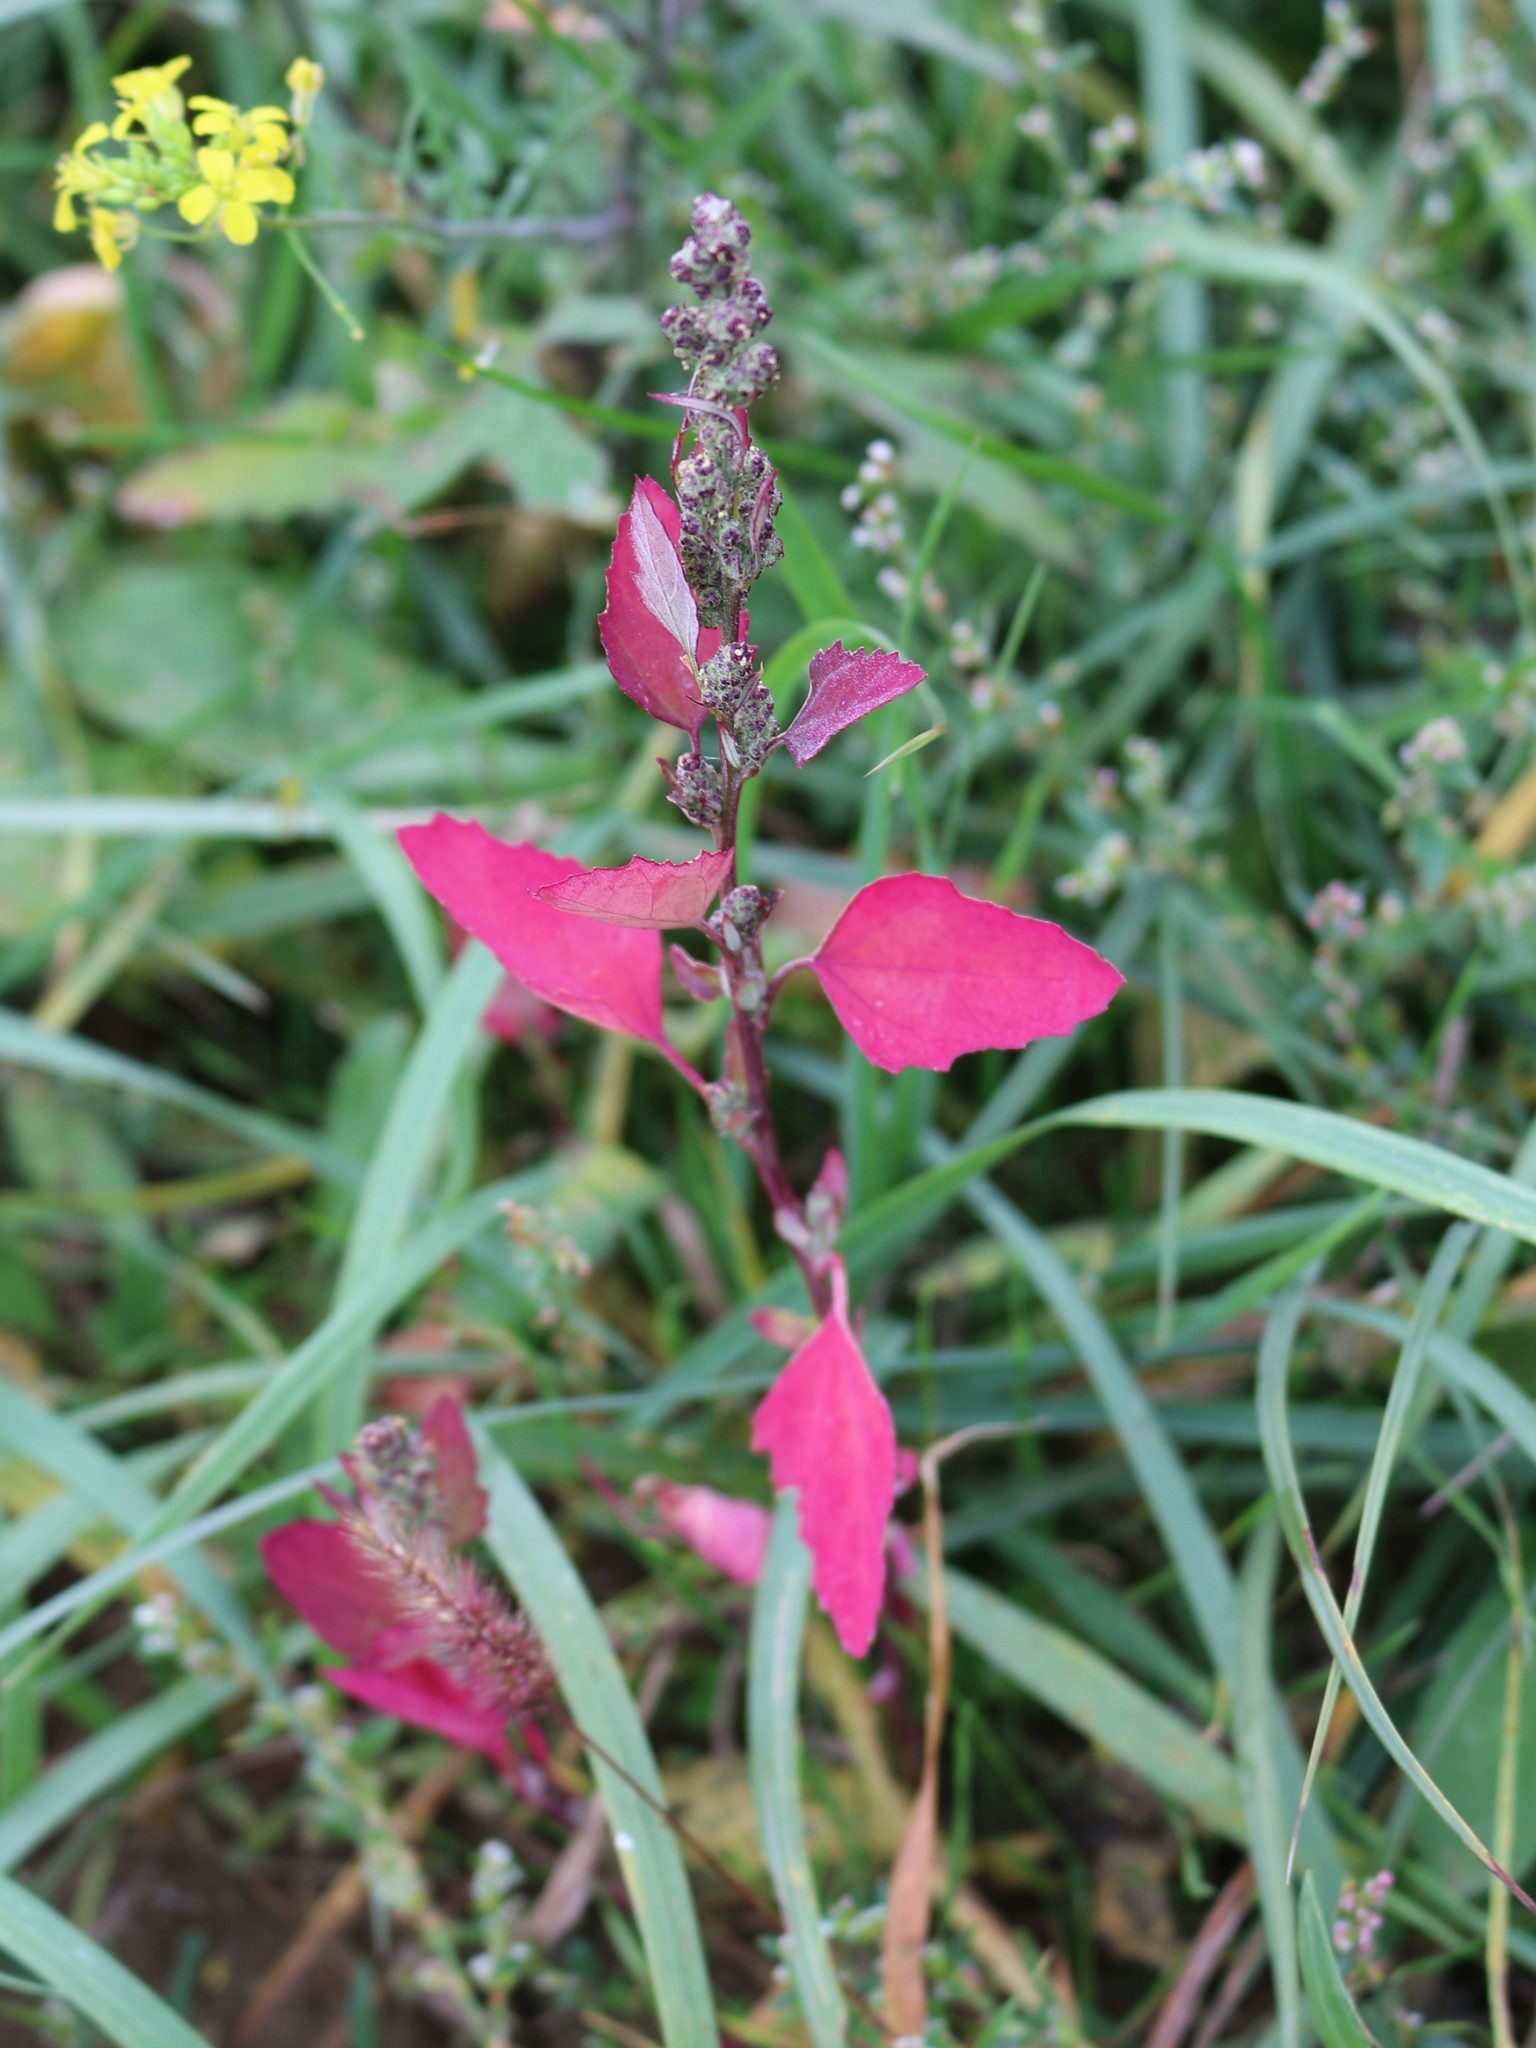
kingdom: Plantae
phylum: Tracheophyta
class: Magnoliopsida
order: Caryophyllales
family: Amaranthaceae
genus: Chenopodium
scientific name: Chenopodium album
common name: Fat-hen
